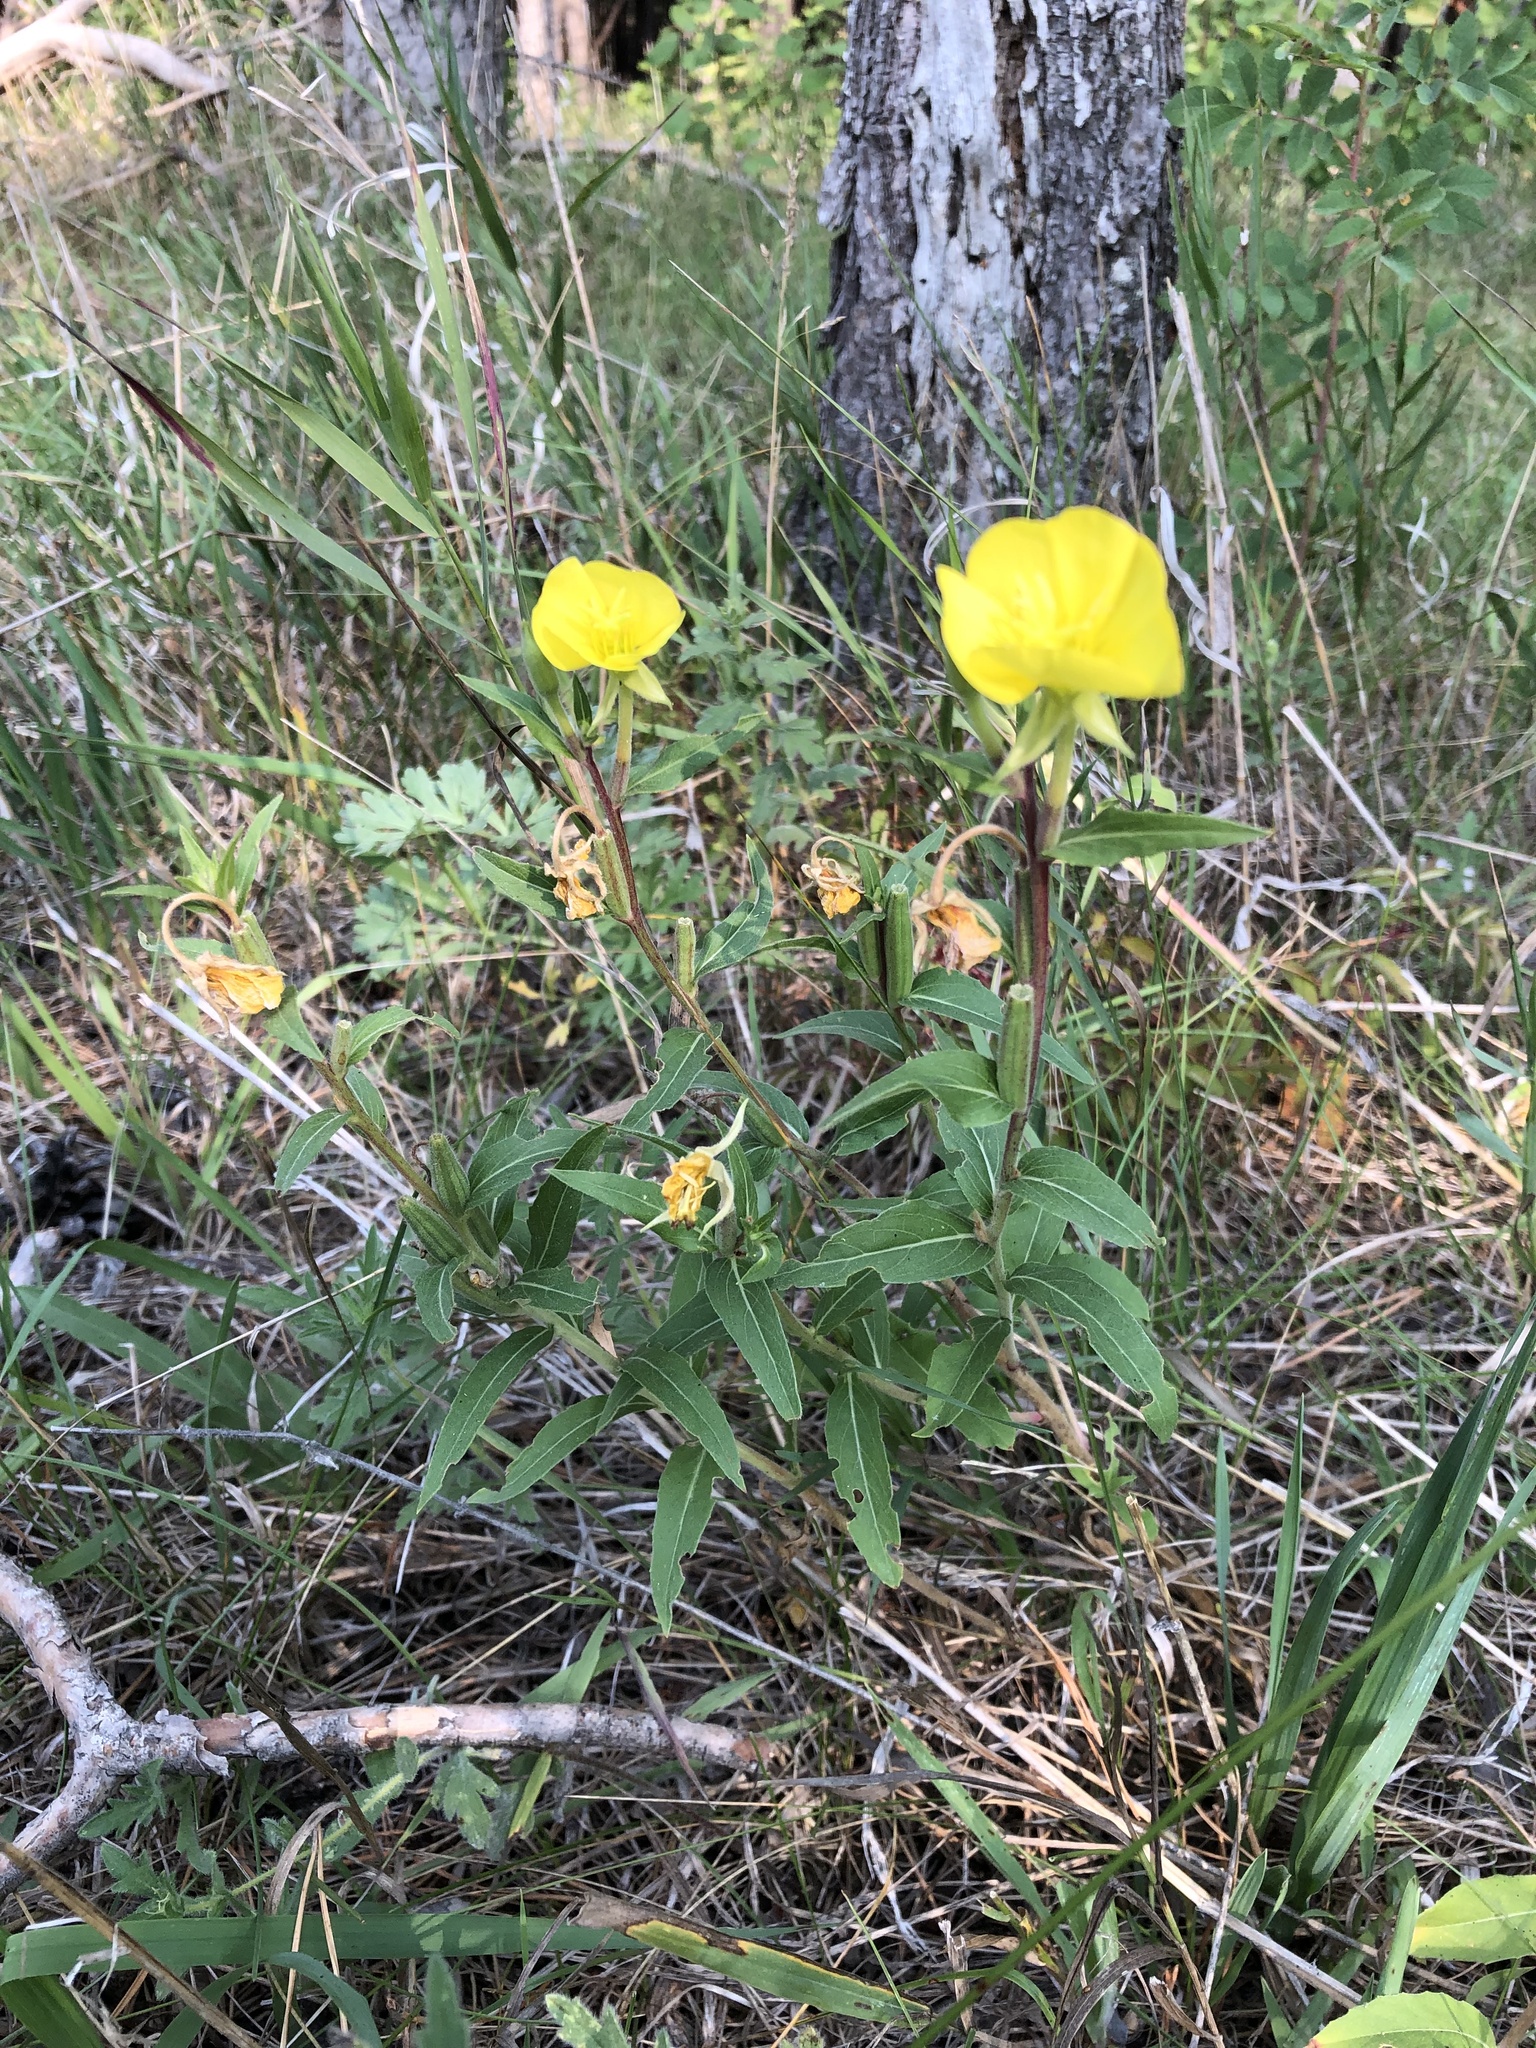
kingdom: Plantae
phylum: Tracheophyta
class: Magnoliopsida
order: Myrtales
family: Onagraceae
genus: Oenothera
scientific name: Oenothera biennis
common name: Common evening-primrose
